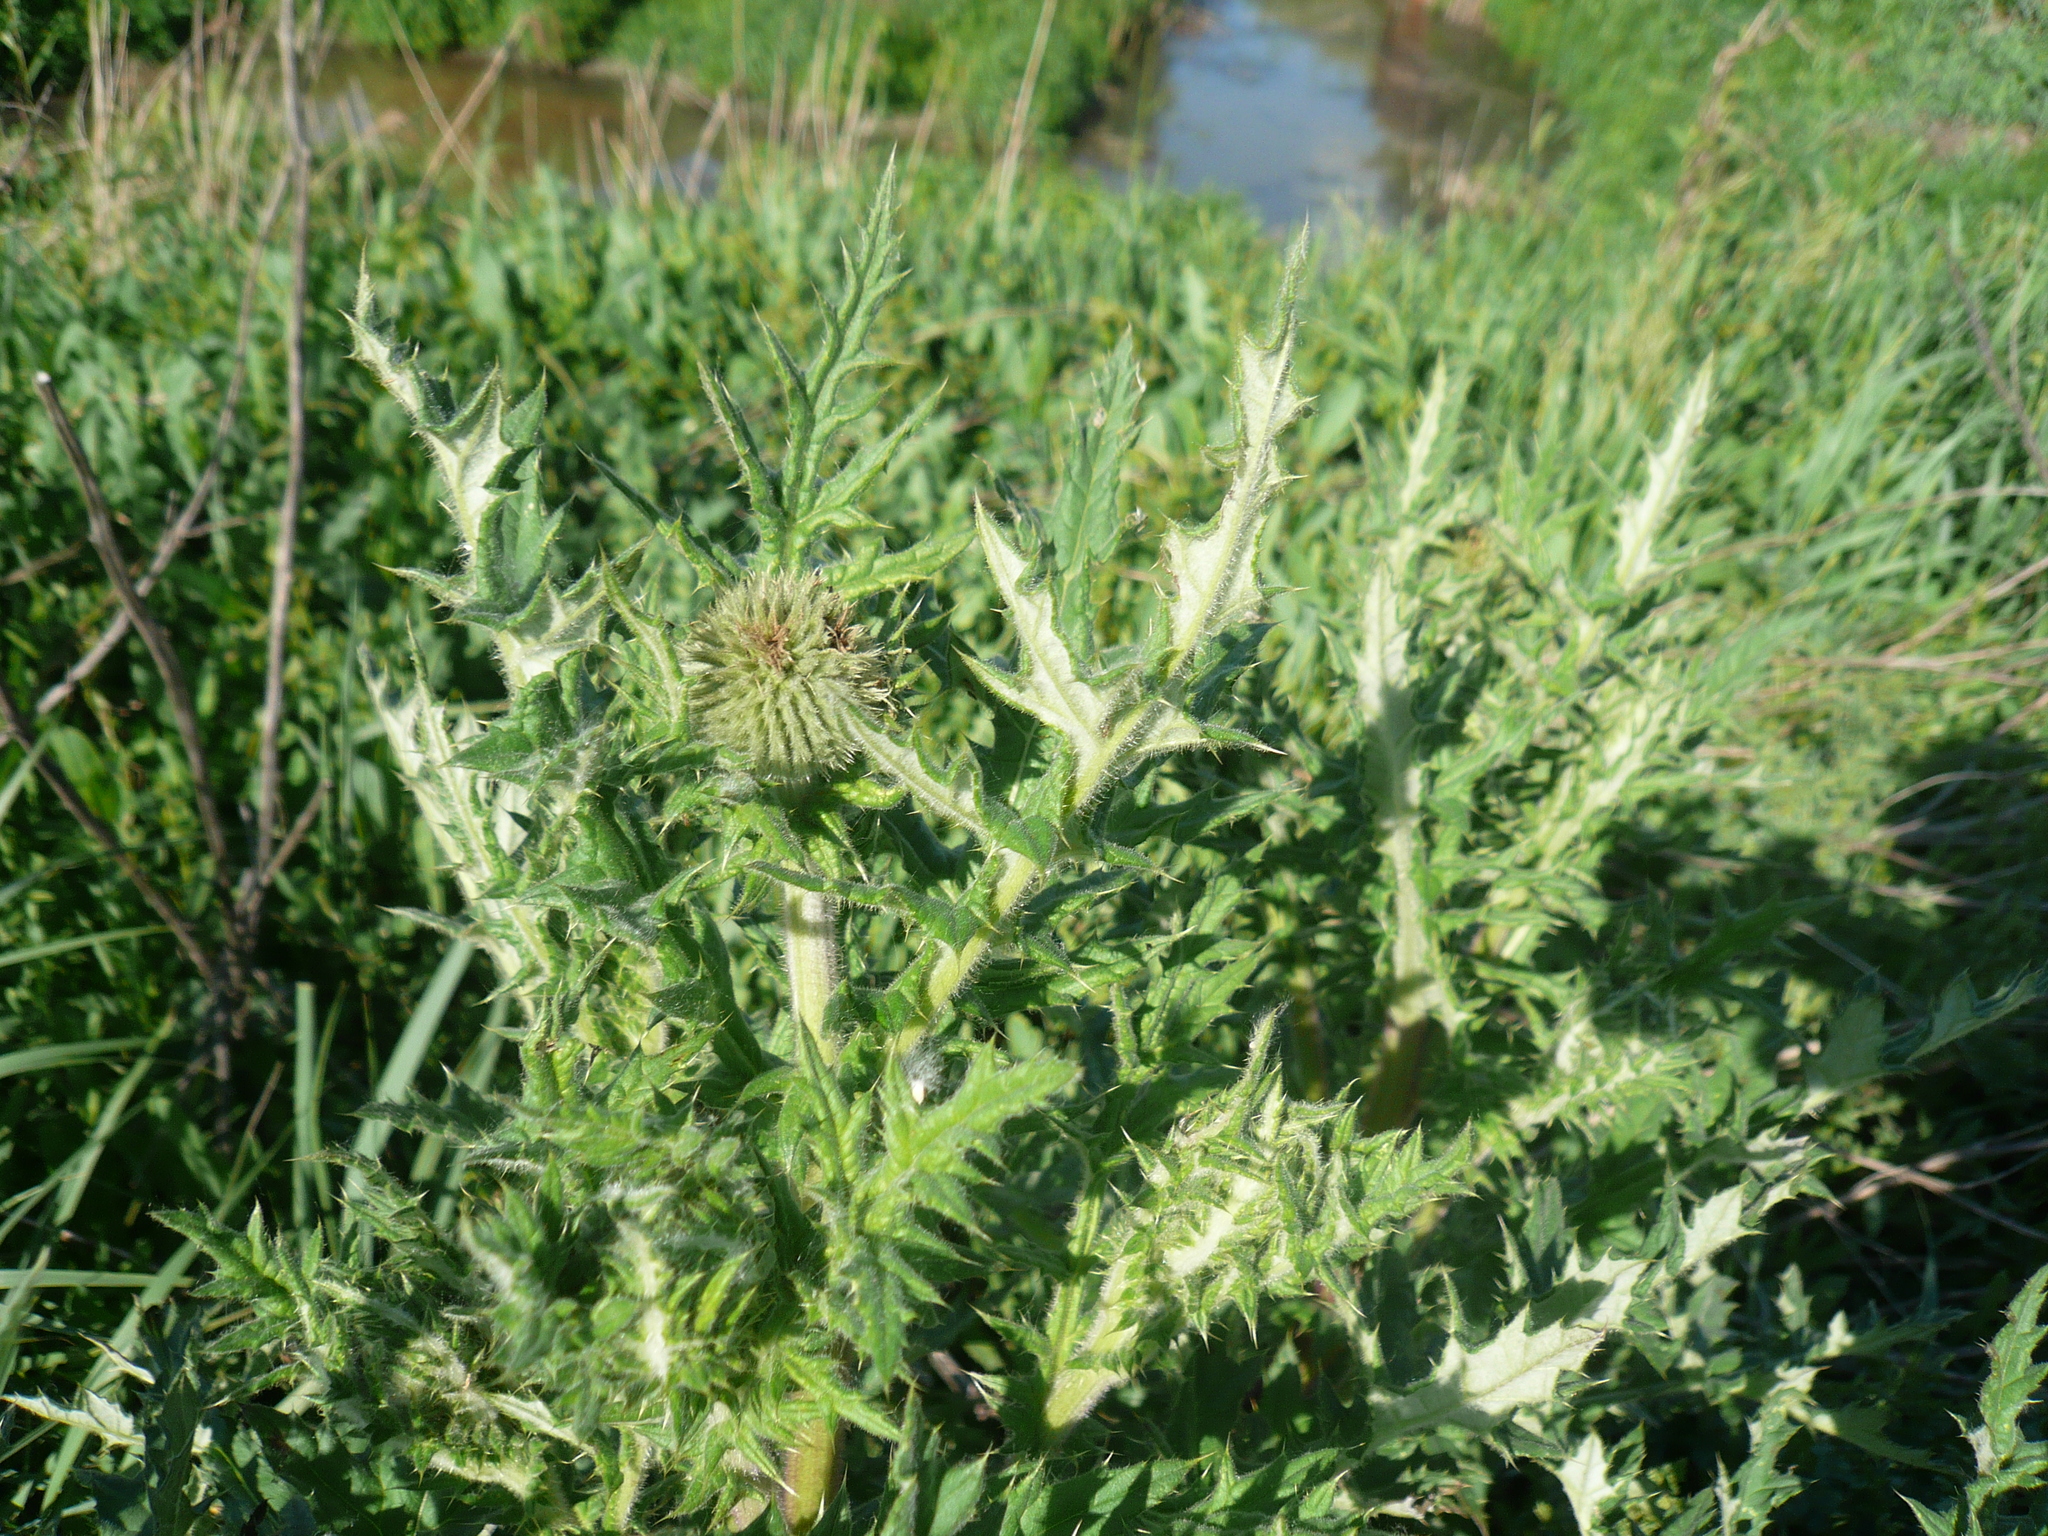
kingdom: Plantae
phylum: Tracheophyta
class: Magnoliopsida
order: Asterales
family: Asteraceae
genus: Echinops
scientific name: Echinops sphaerocephalus
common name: Glandular globe-thistle
